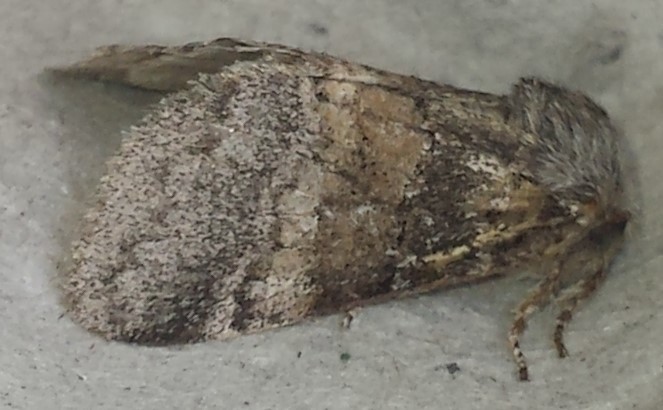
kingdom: Animalia
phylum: Arthropoda
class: Insecta
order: Lepidoptera
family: Notodontidae
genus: Gluphisia
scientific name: Gluphisia septentrionis
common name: Common gluphisia
